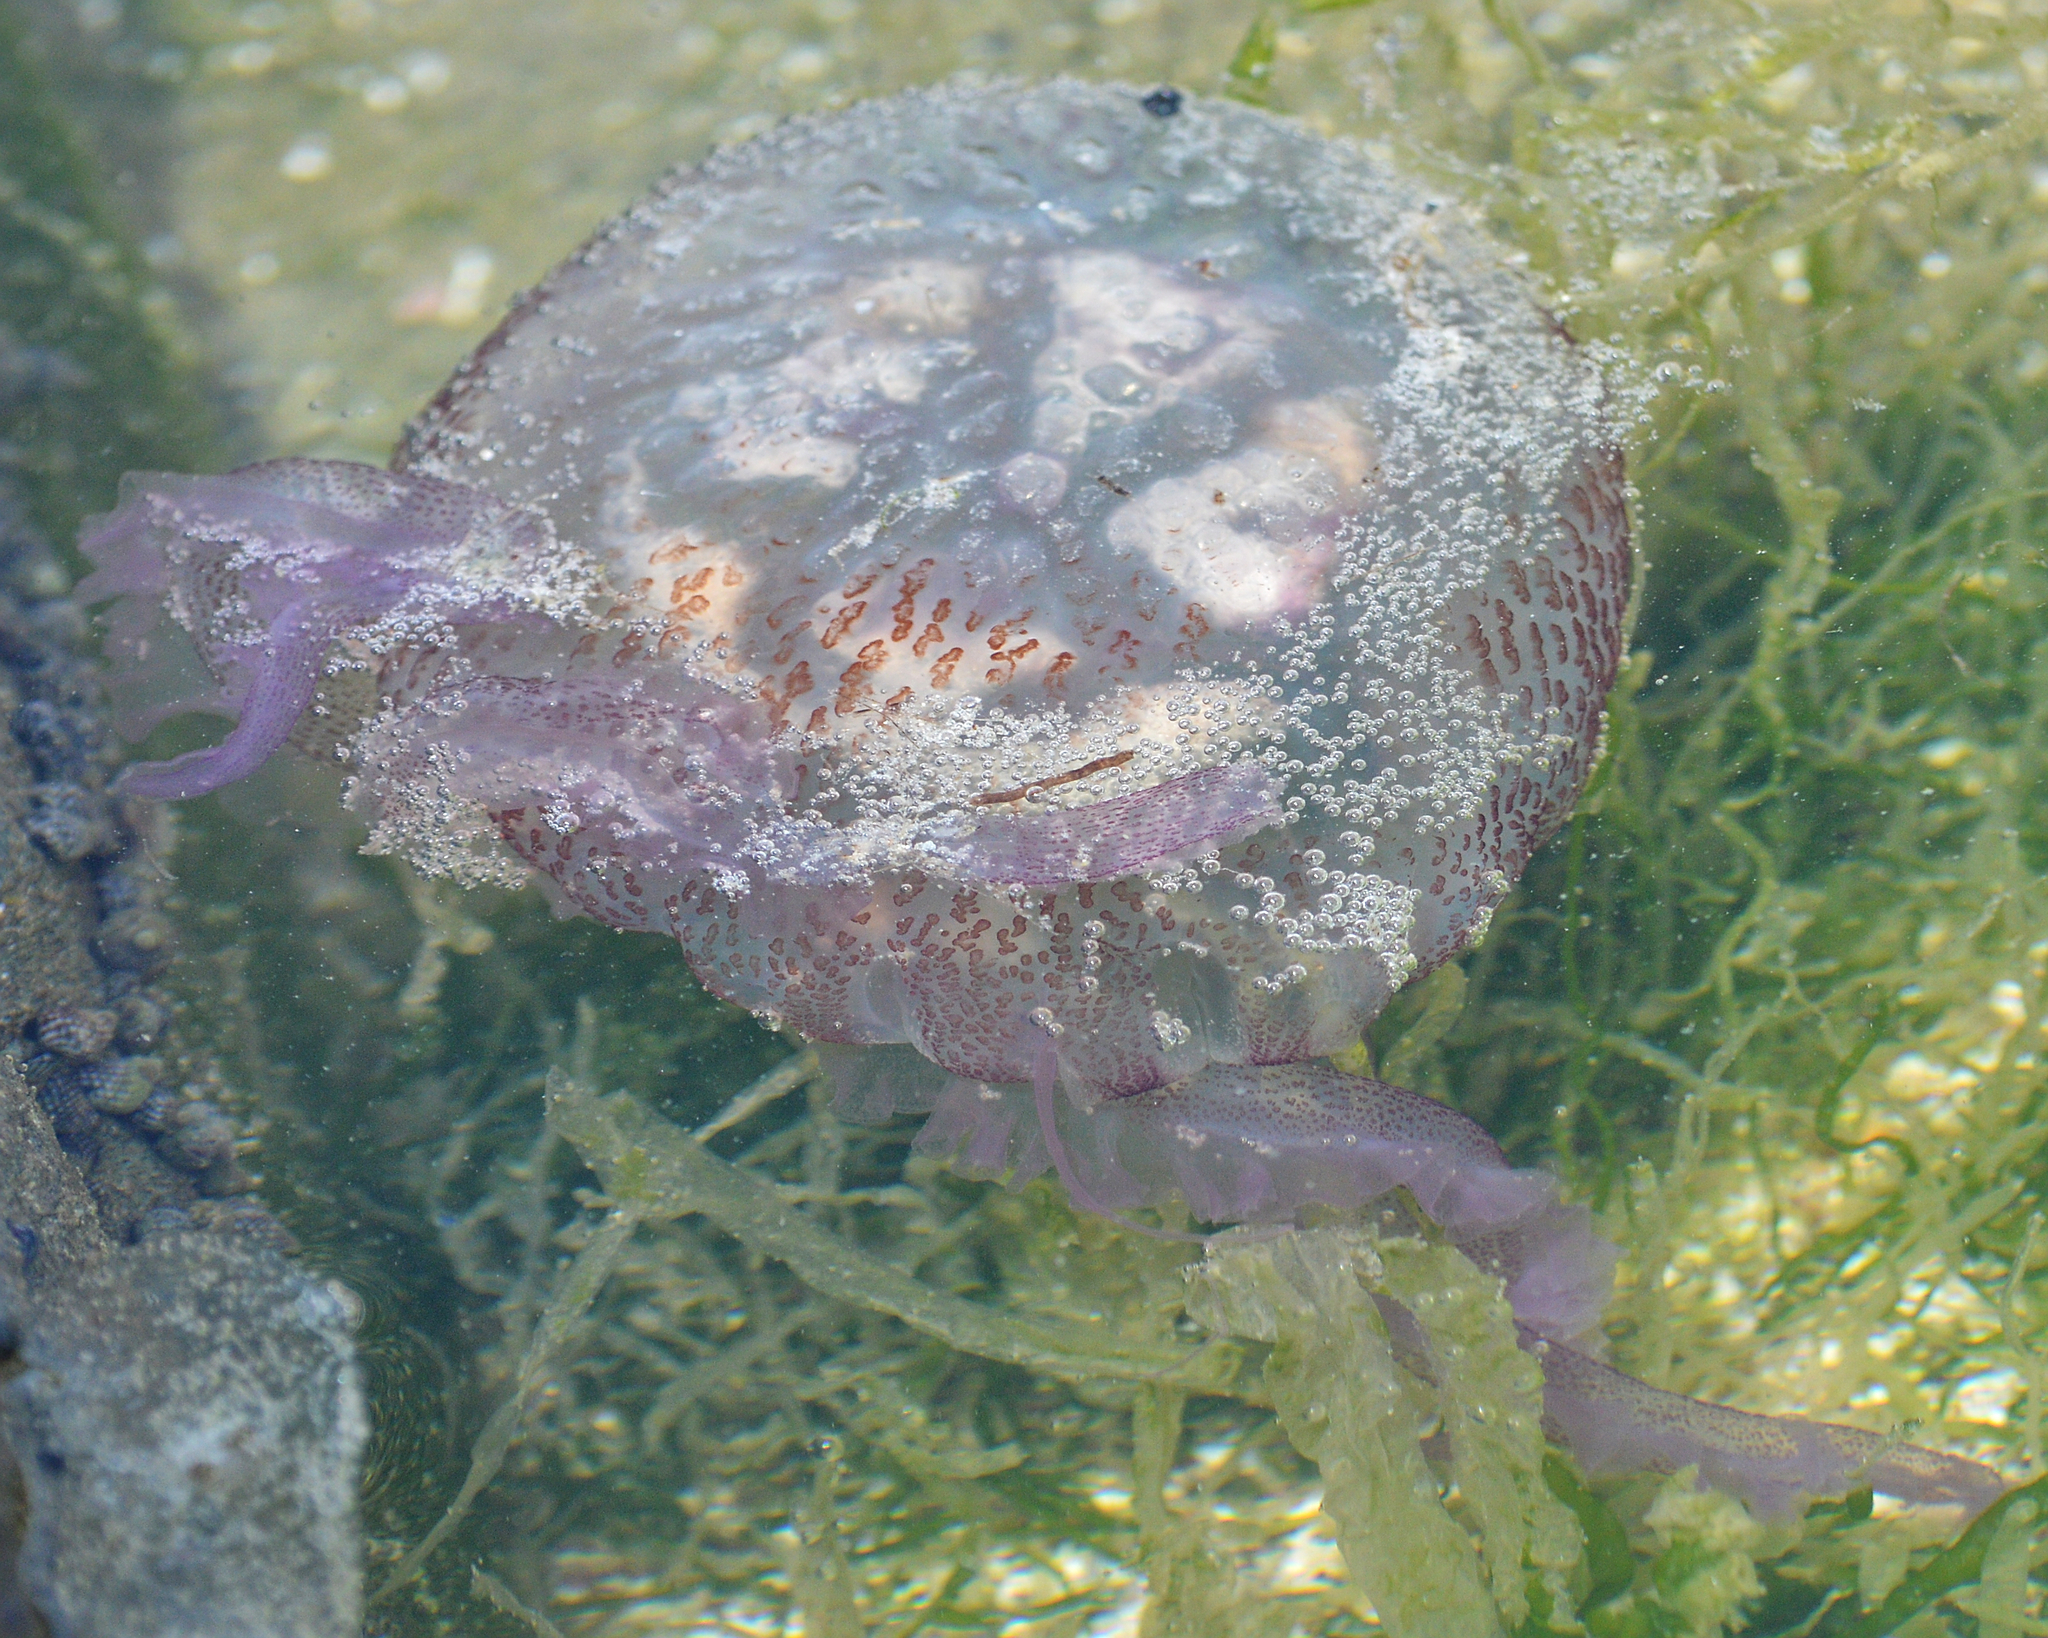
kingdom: Animalia
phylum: Cnidaria
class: Scyphozoa
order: Semaeostomeae
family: Pelagiidae
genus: Pelagia
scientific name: Pelagia noctiluca
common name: Mauve stinger
